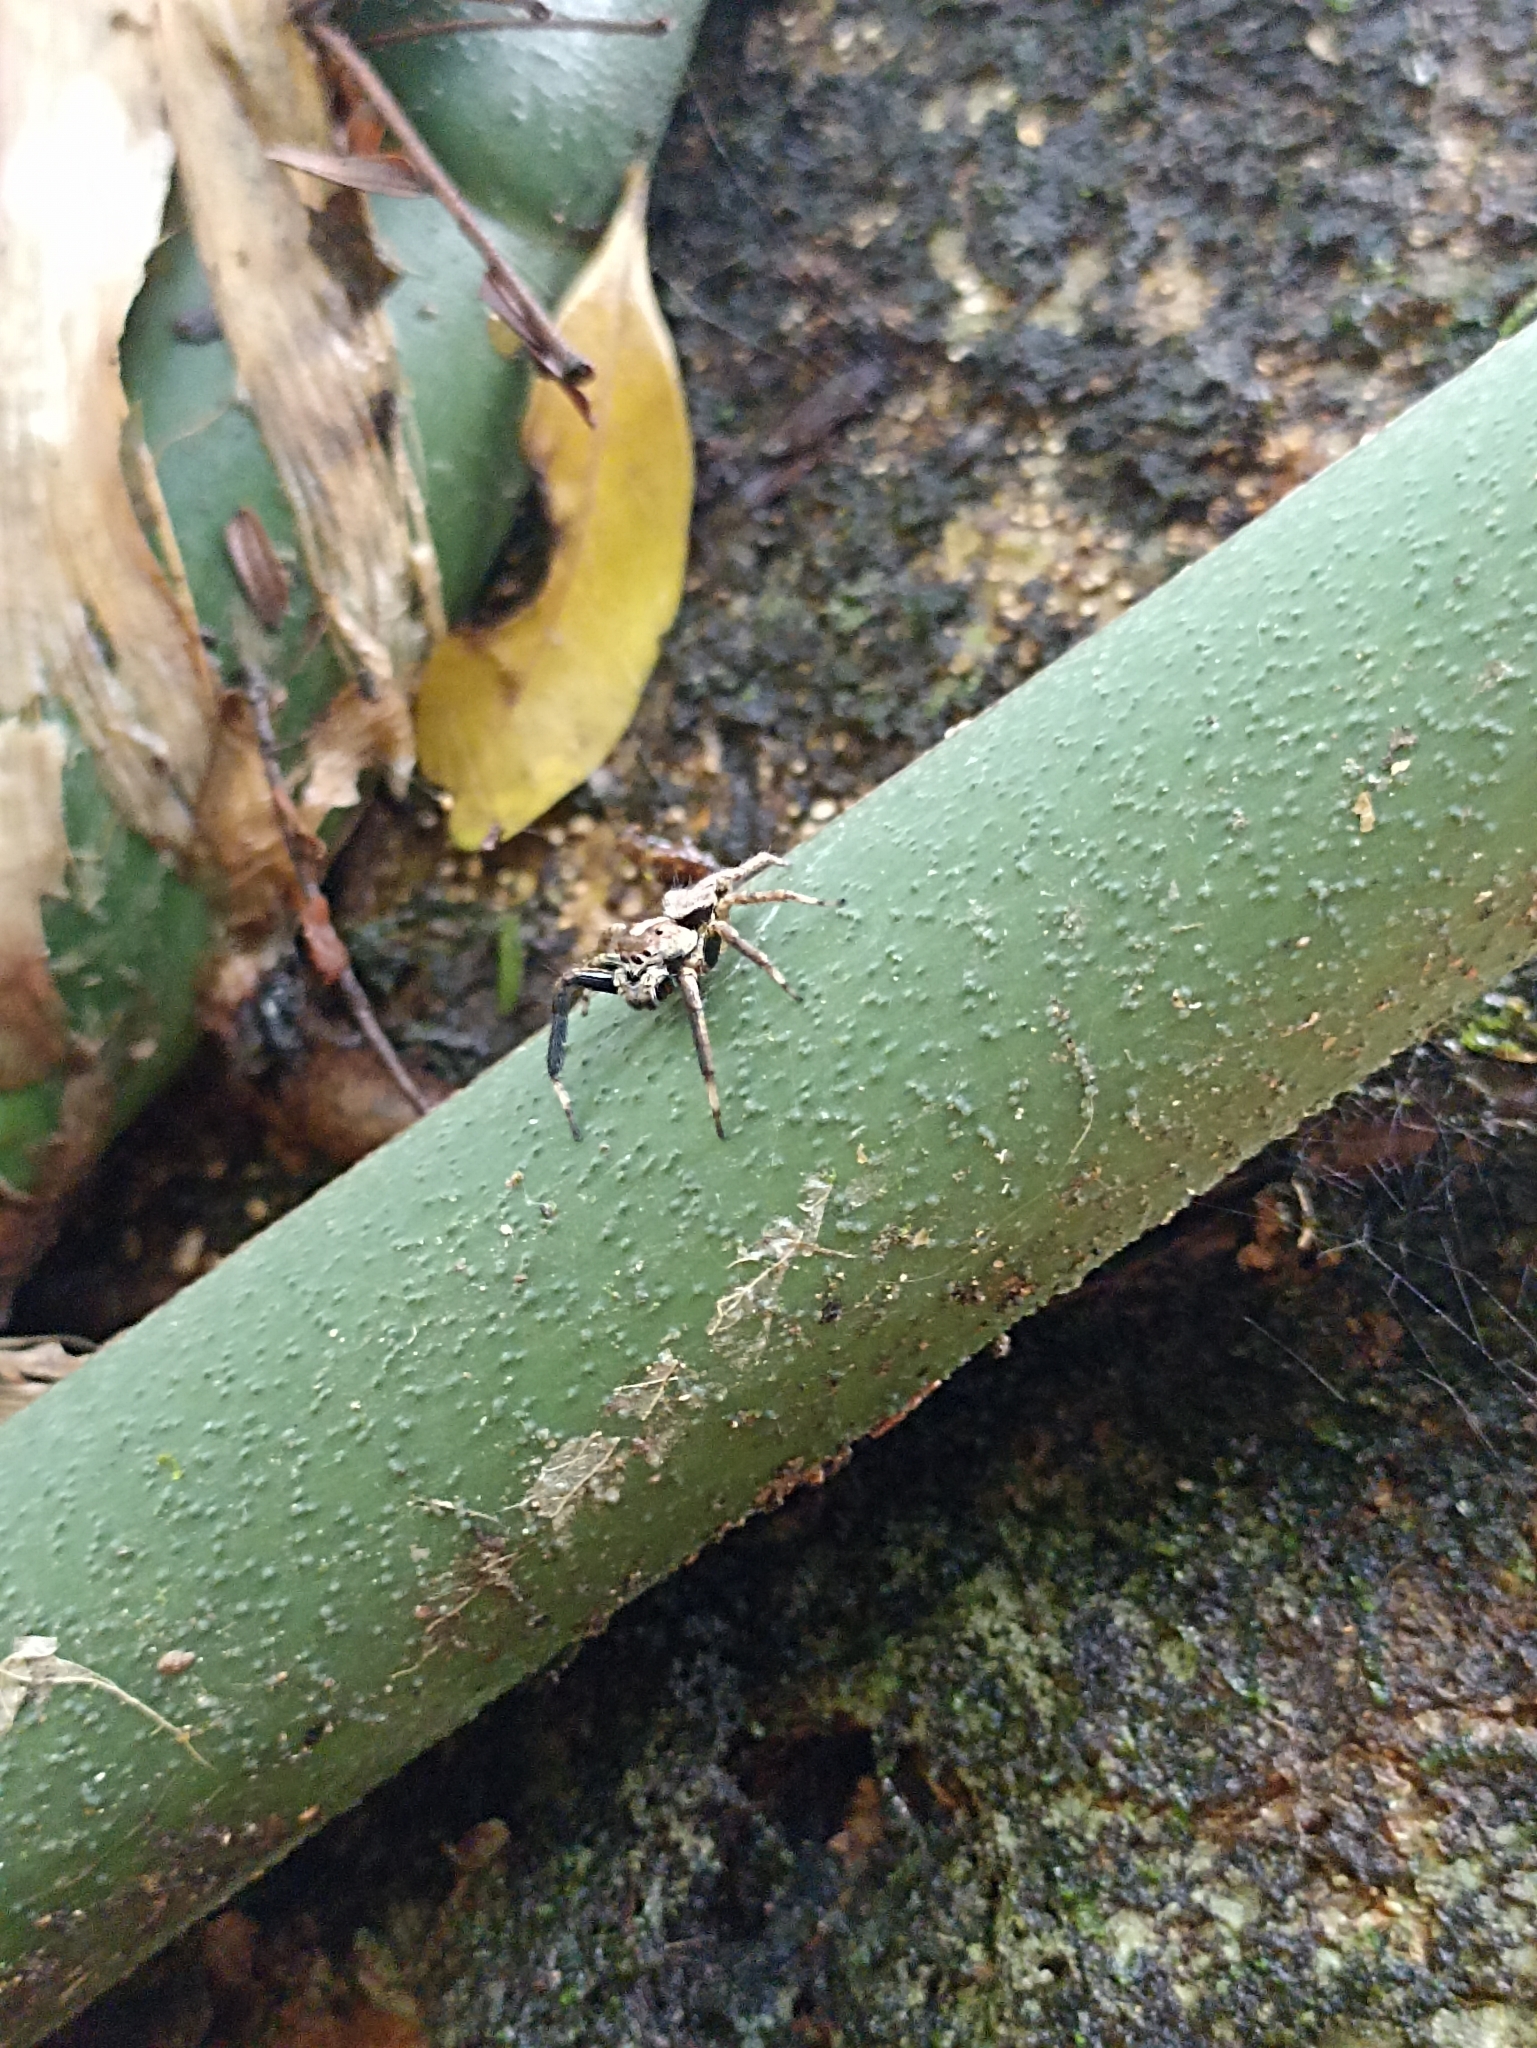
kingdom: Animalia
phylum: Arthropoda
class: Arachnida
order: Araneae
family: Salticidae
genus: Asaphobelis
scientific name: Asaphobelis physonychus
